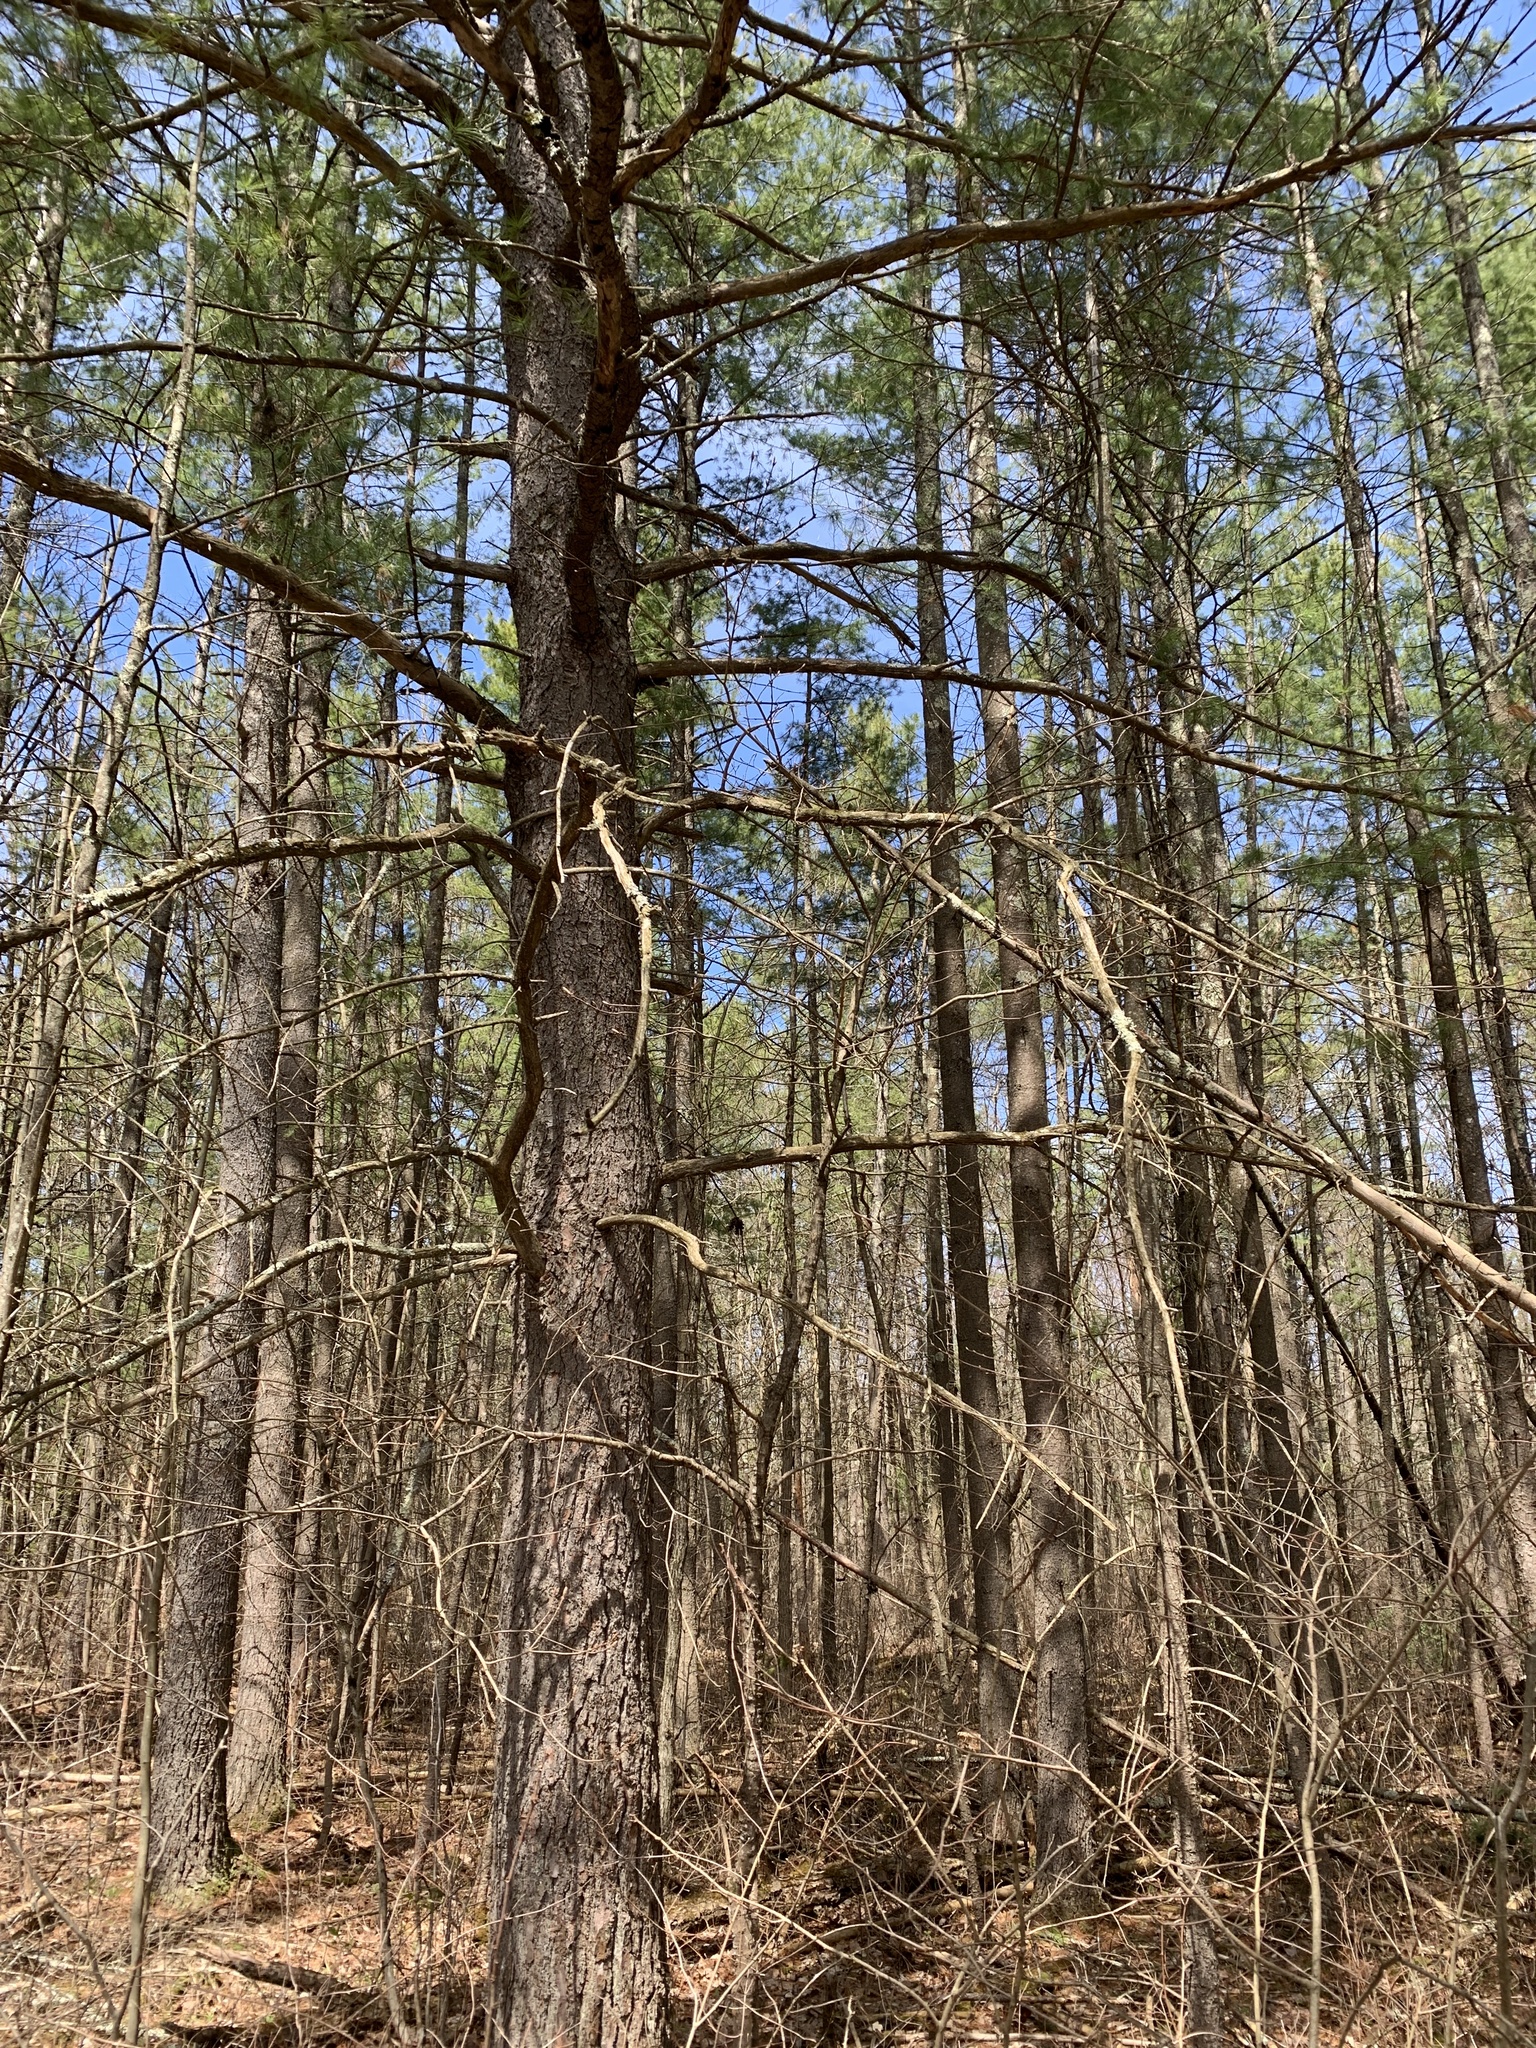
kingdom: Plantae
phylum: Tracheophyta
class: Pinopsida
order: Pinales
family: Pinaceae
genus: Pinus
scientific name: Pinus strobus
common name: Weymouth pine
